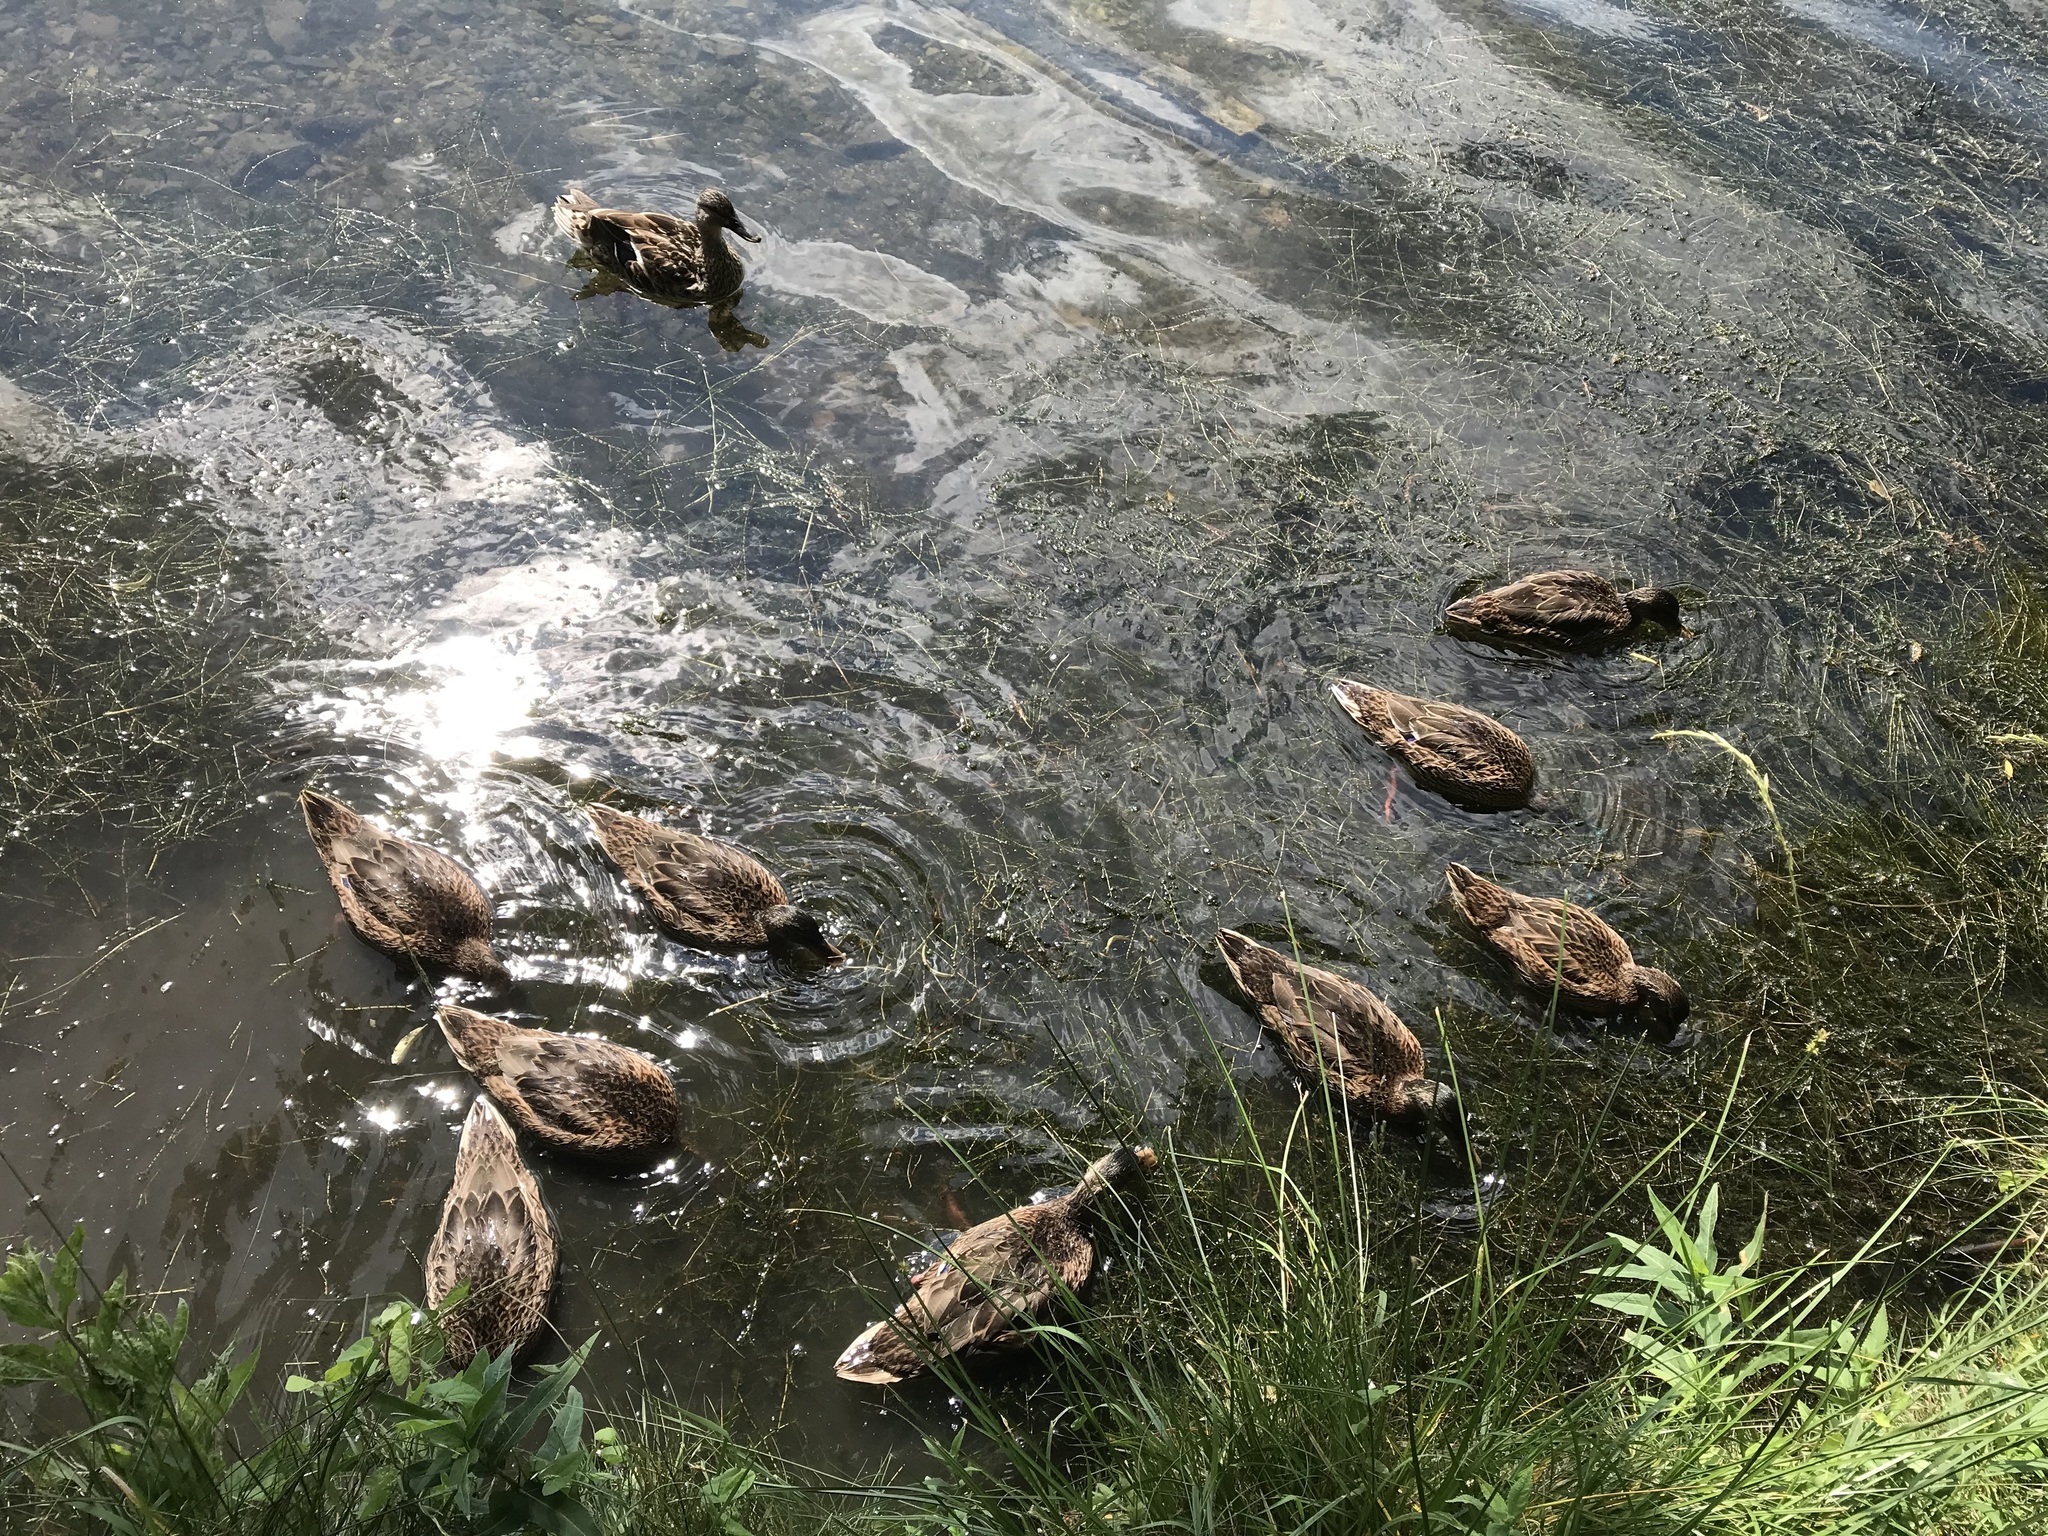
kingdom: Animalia
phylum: Chordata
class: Aves
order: Anseriformes
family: Anatidae
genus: Anas
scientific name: Anas platyrhynchos
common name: Mallard
